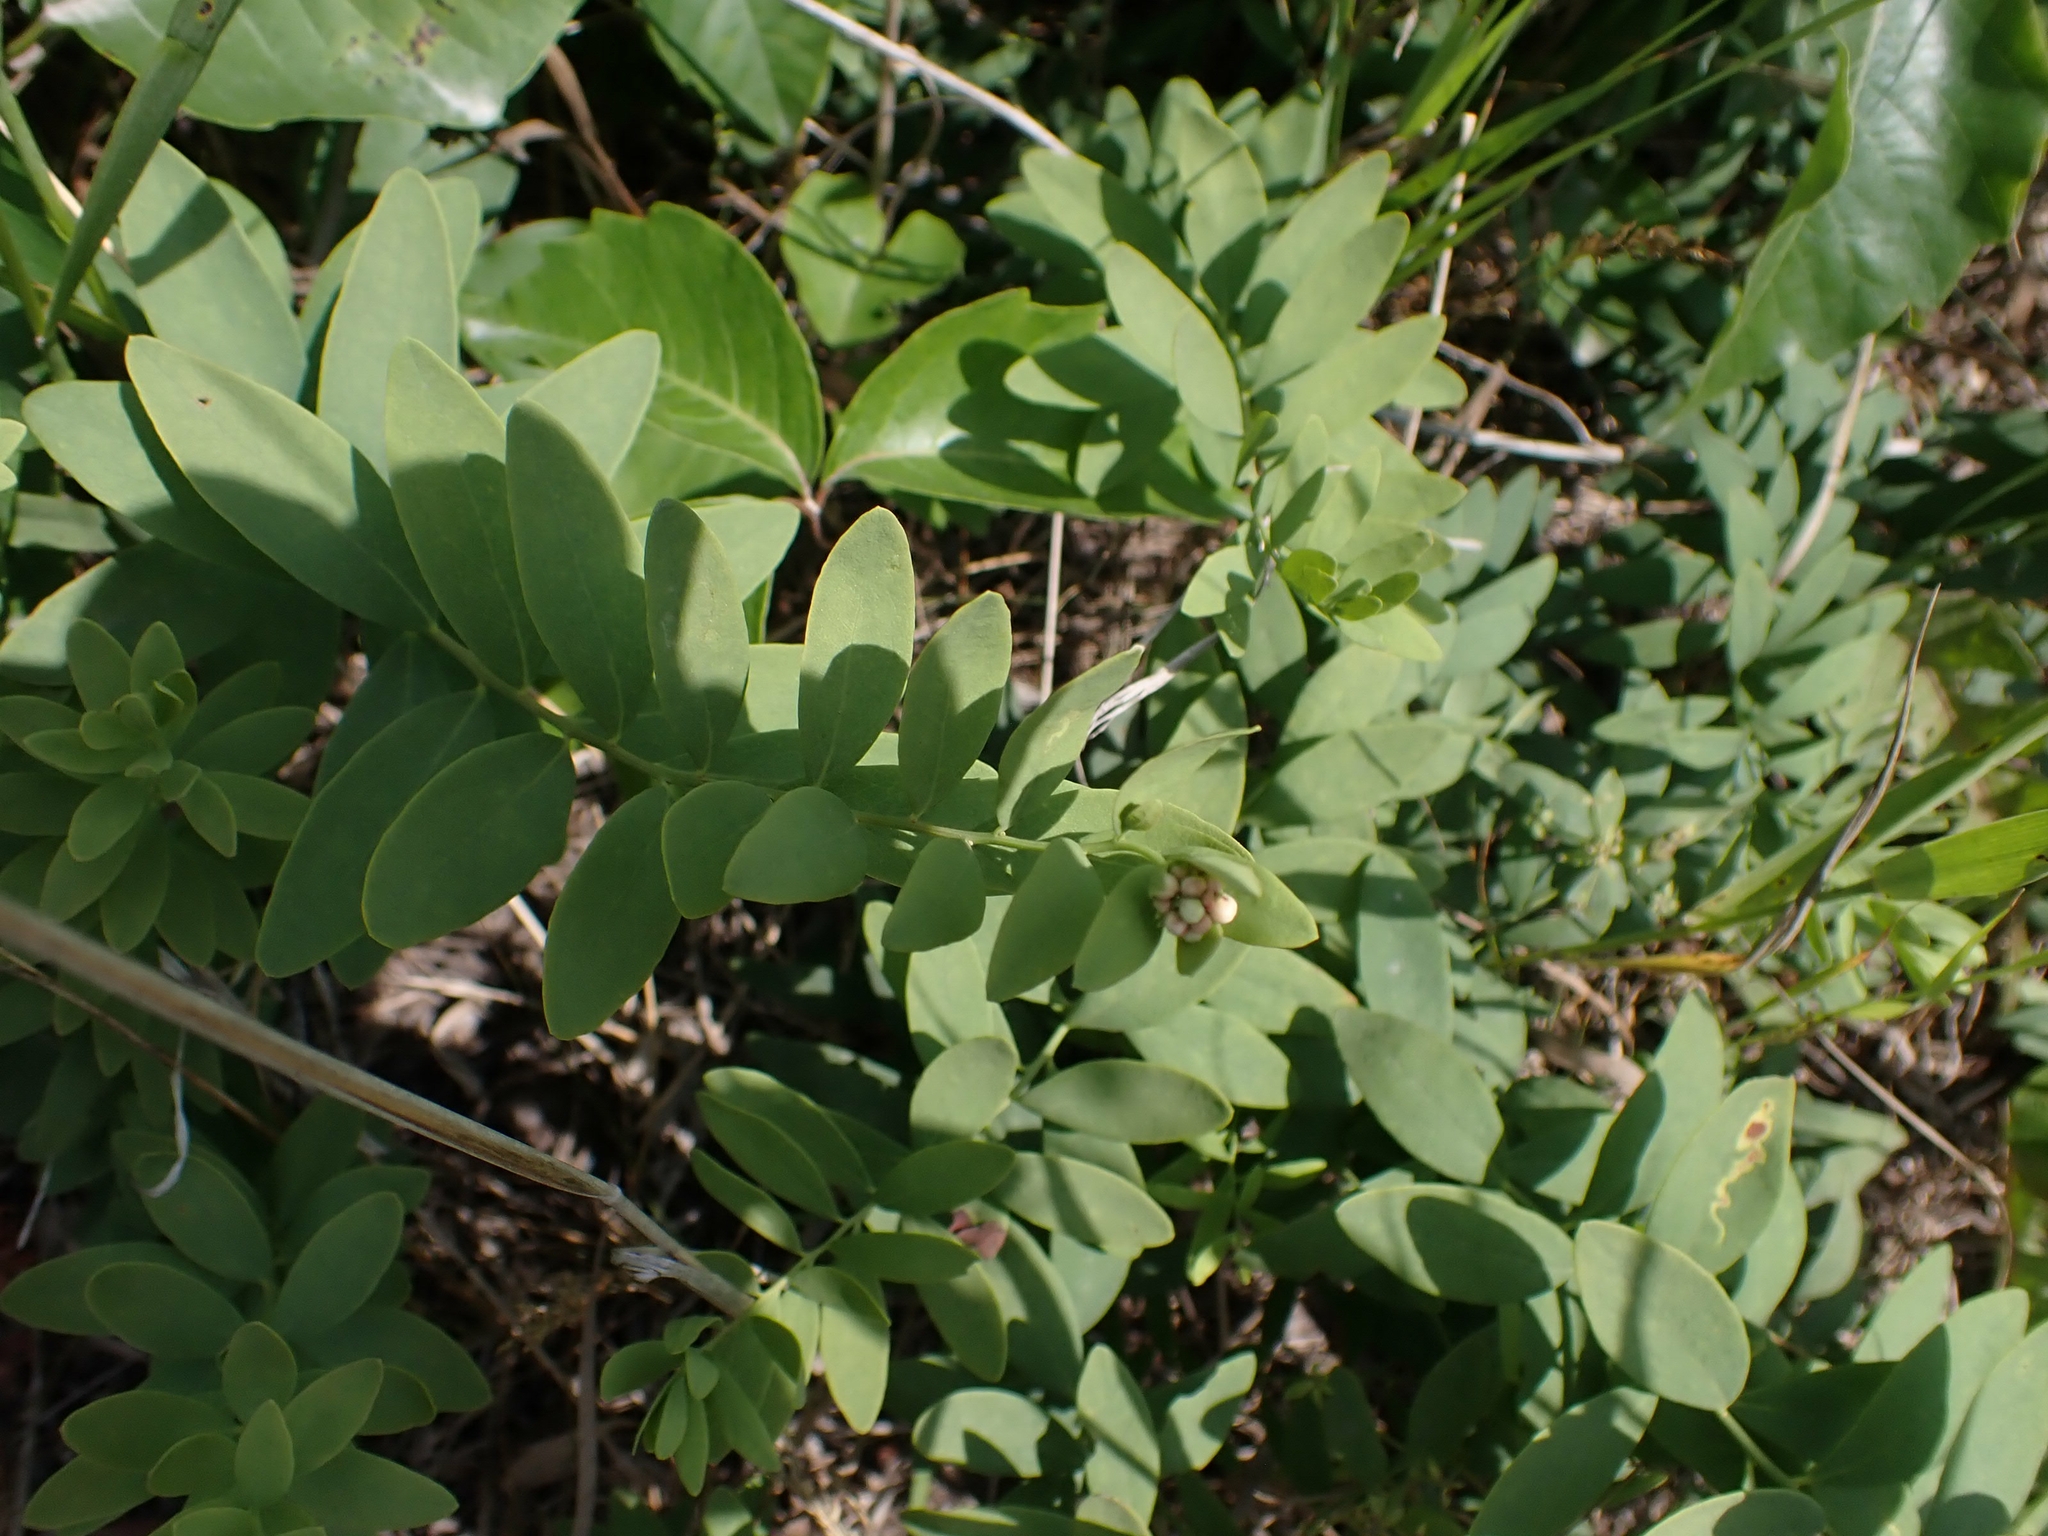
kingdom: Plantae
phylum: Tracheophyta
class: Magnoliopsida
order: Santalales
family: Comandraceae
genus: Comandra
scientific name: Comandra umbellata
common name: Bastard toadflax
